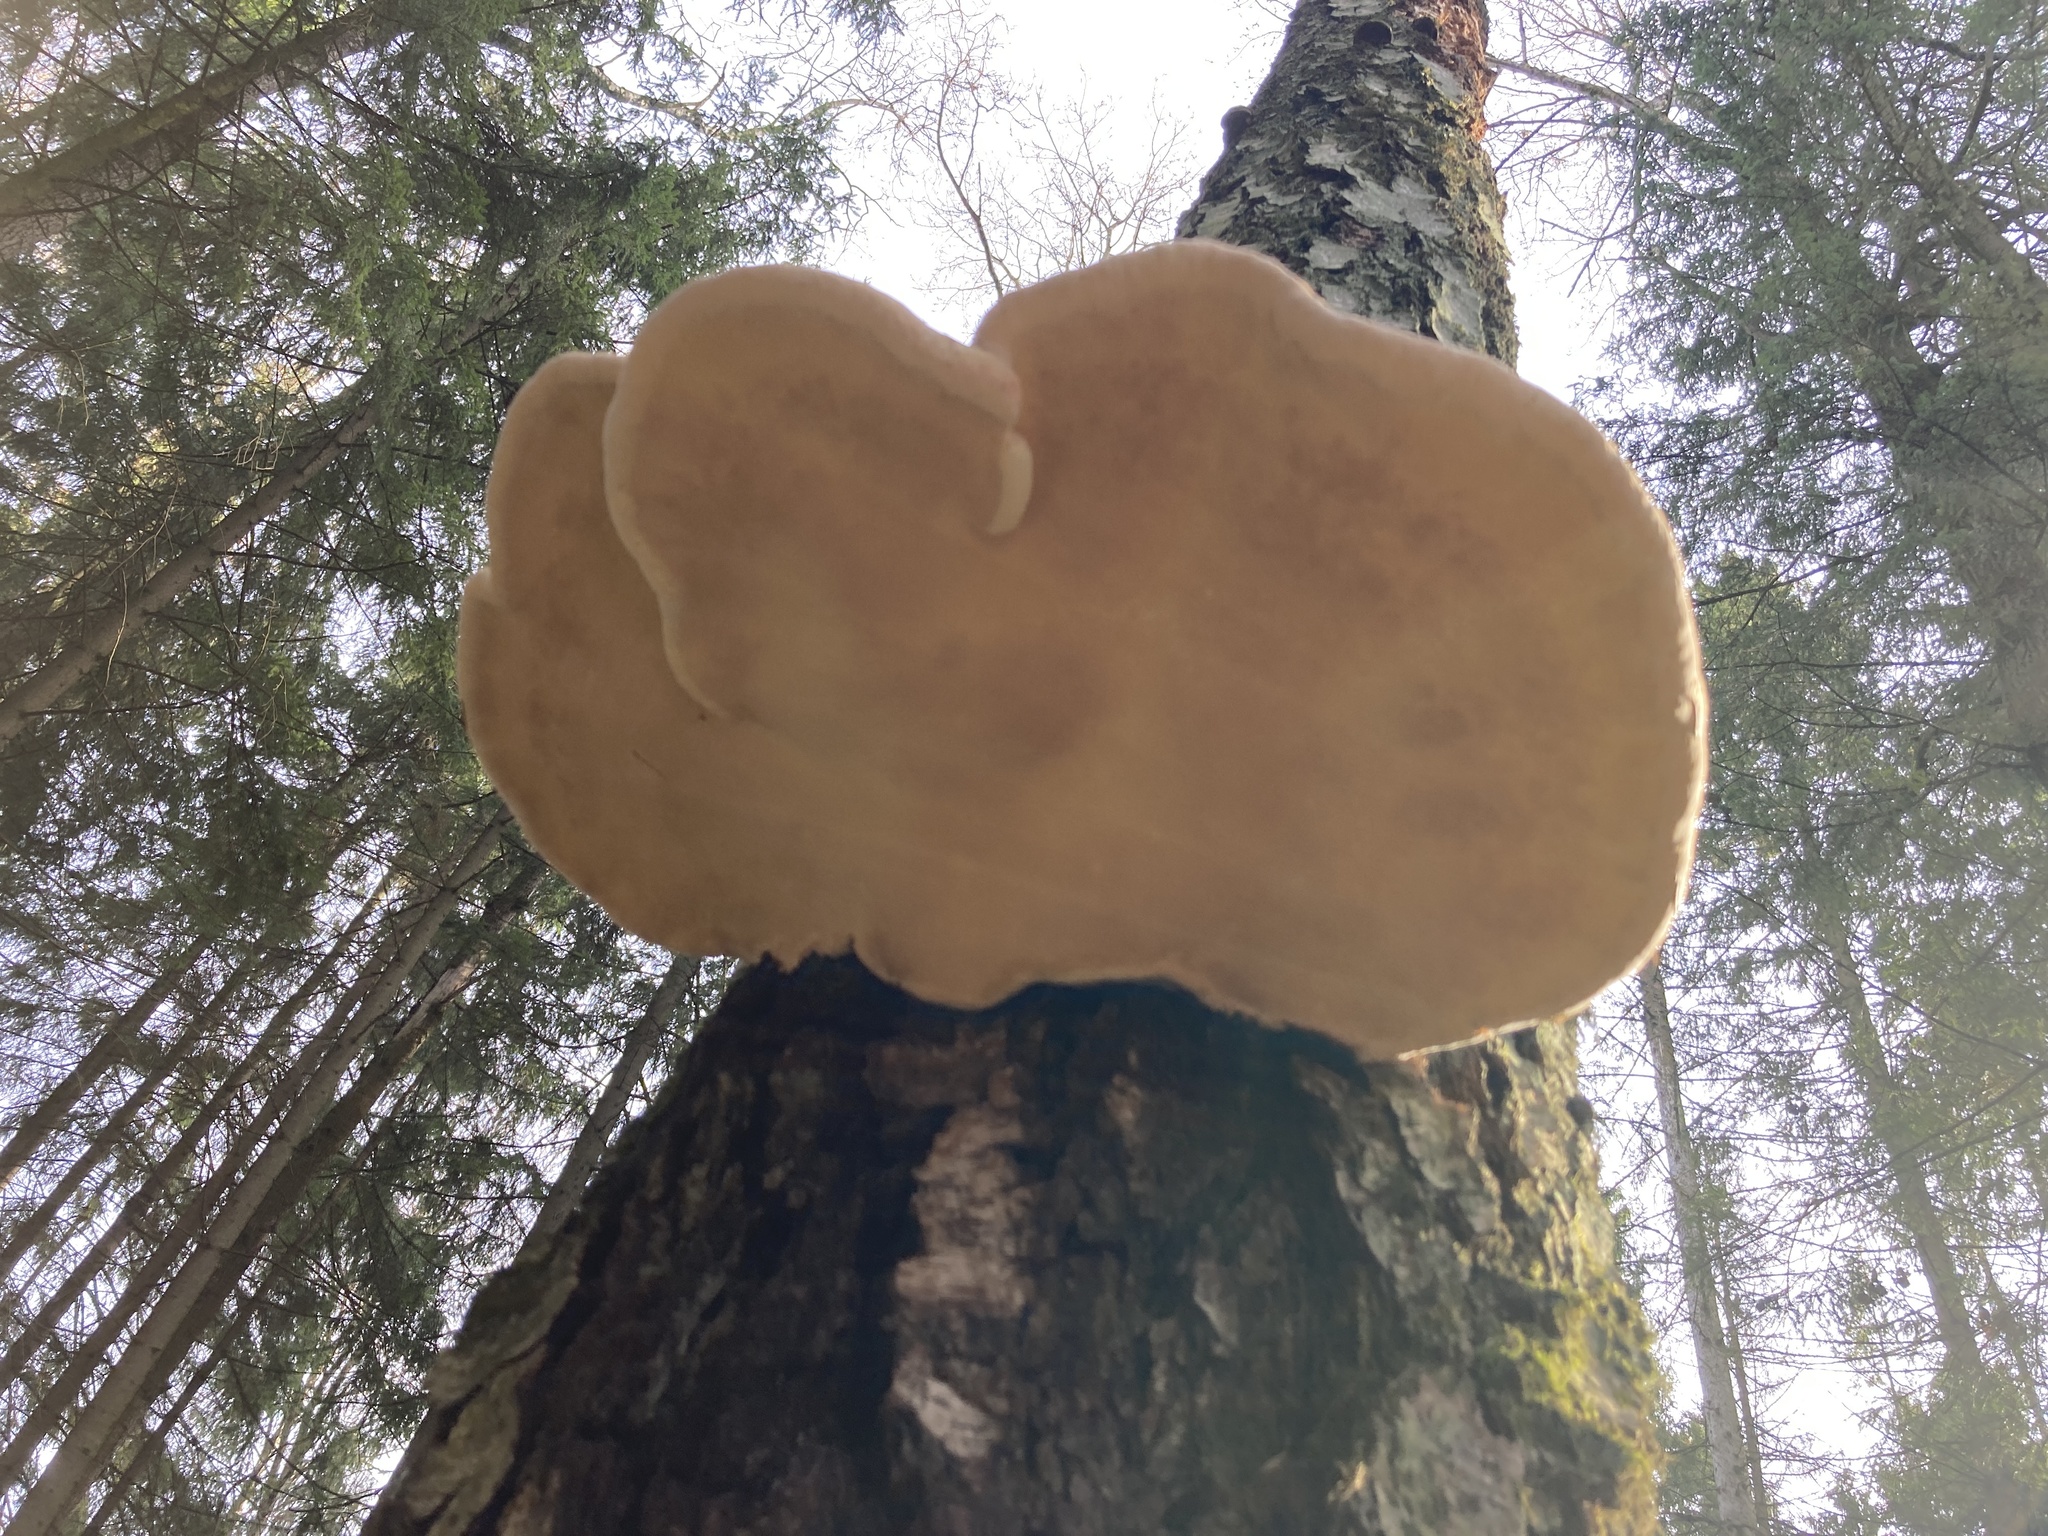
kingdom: Fungi
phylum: Basidiomycota
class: Agaricomycetes
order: Polyporales
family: Fomitopsidaceae
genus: Fomitopsis
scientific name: Fomitopsis pinicola
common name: Red-belted bracket
